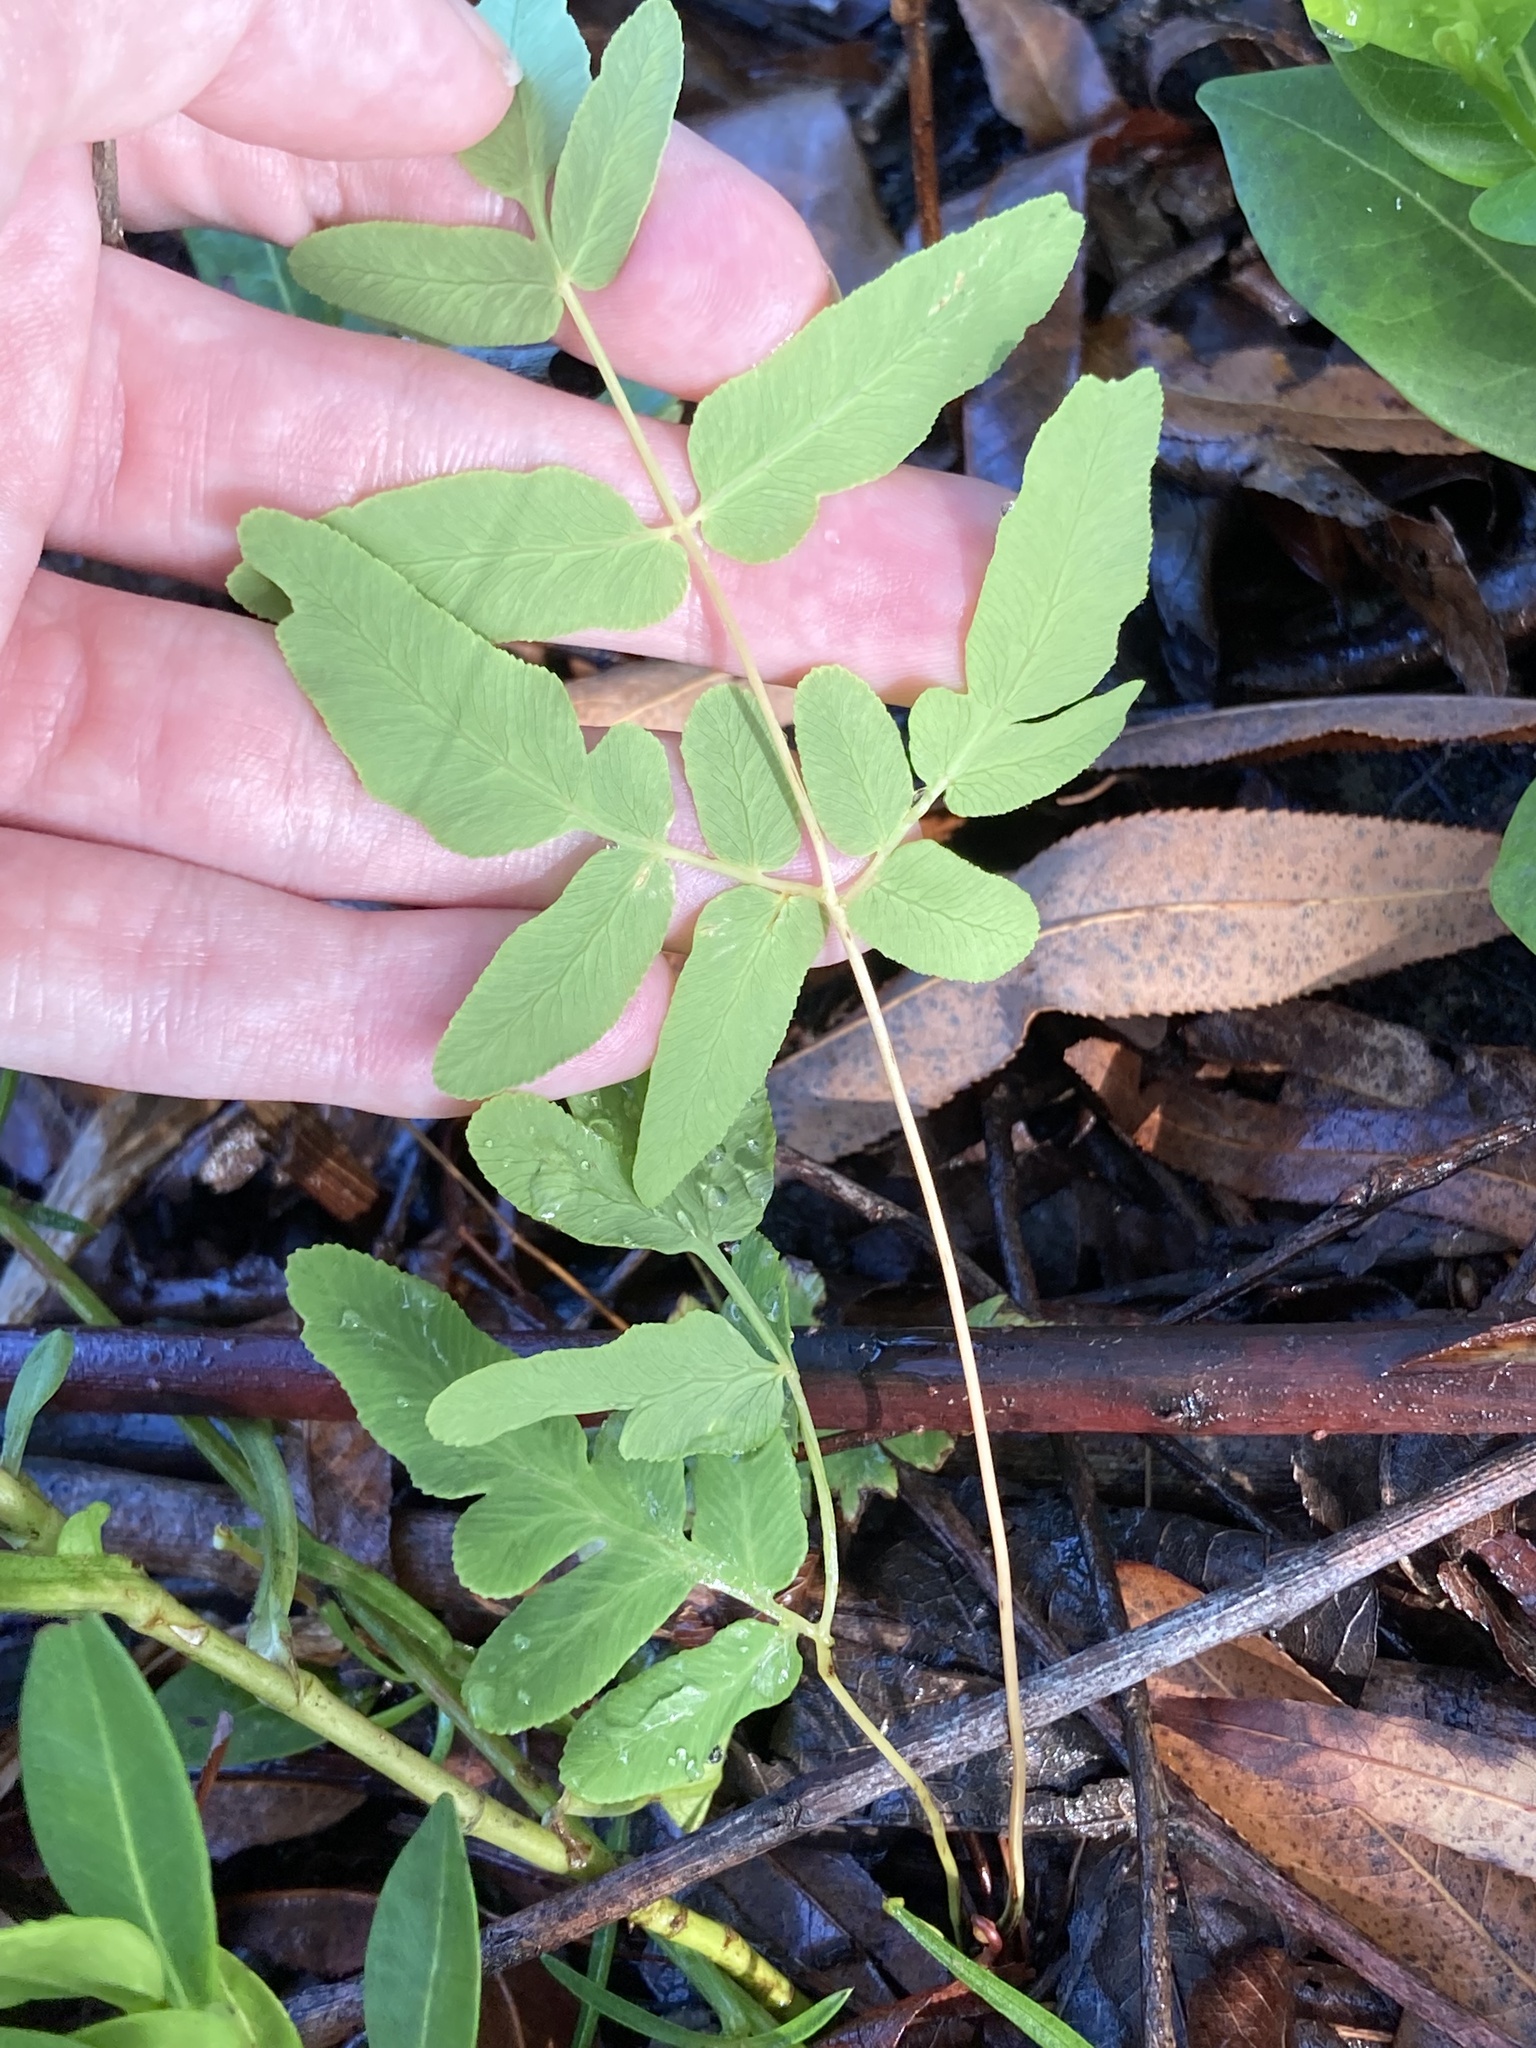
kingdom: Plantae
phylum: Tracheophyta
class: Polypodiopsida
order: Osmundales
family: Osmundaceae
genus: Osmunda
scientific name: Osmunda spectabilis
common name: American royal fern
